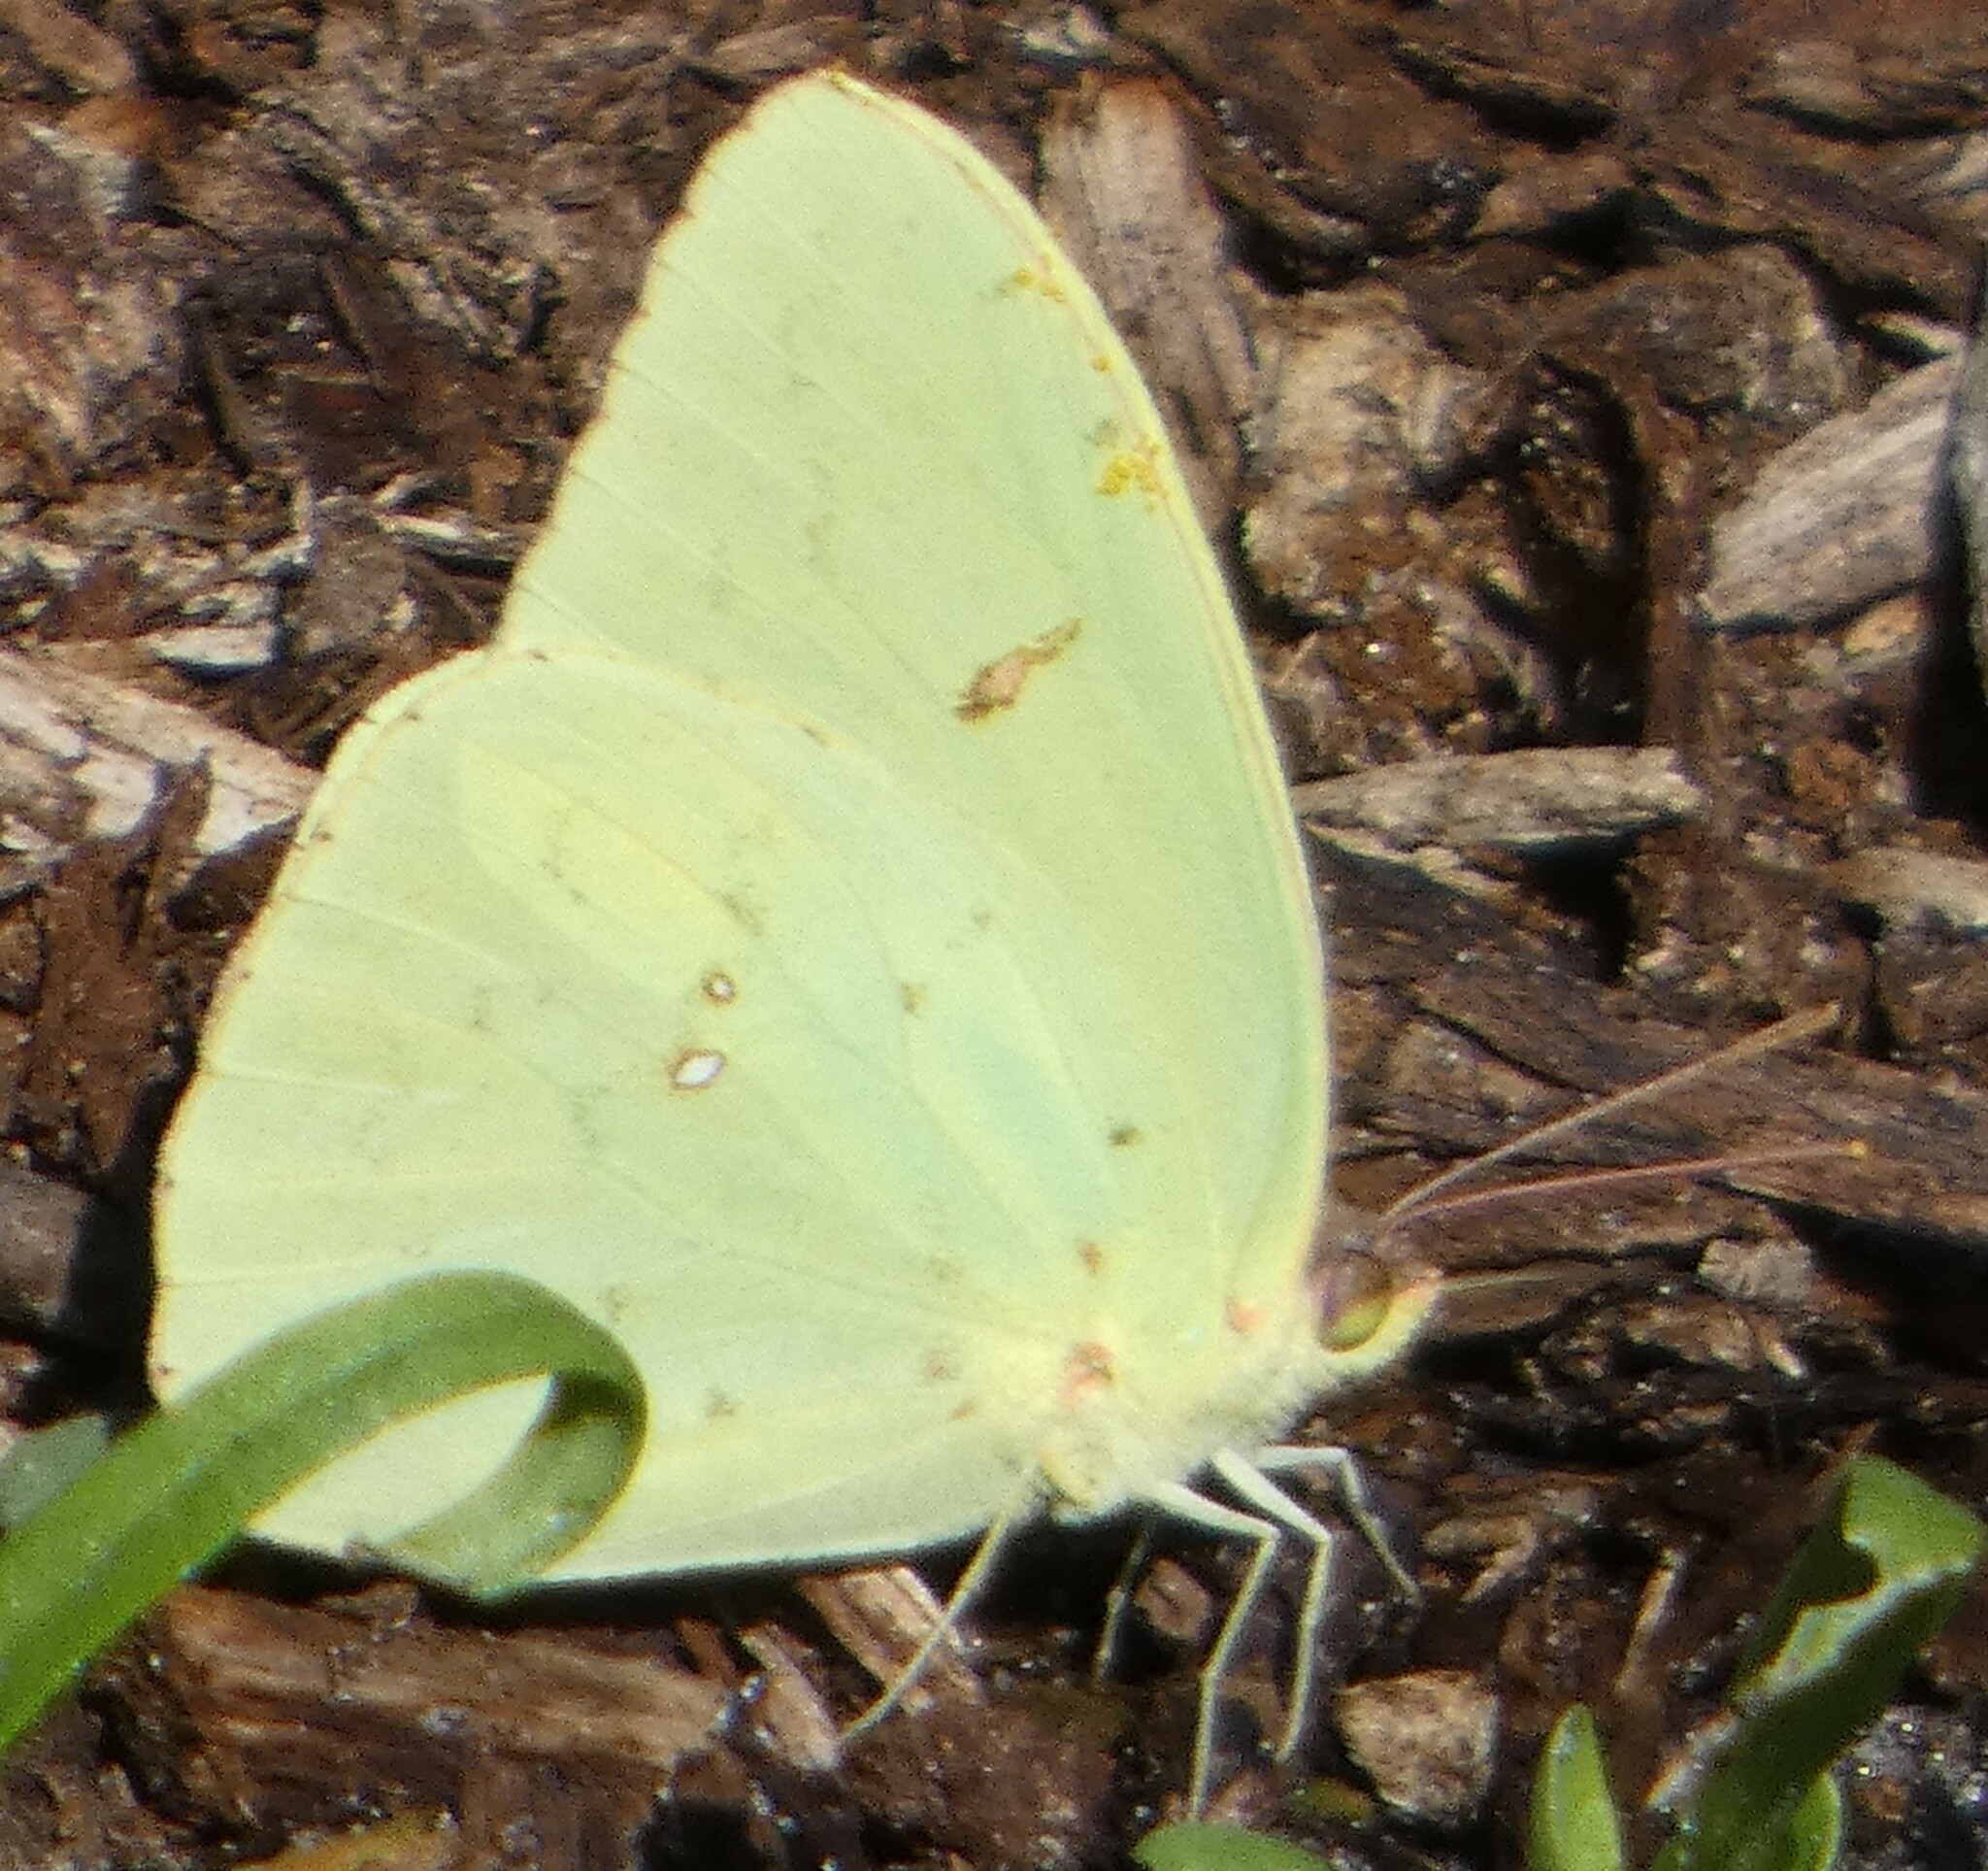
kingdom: Animalia
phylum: Arthropoda
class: Insecta
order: Lepidoptera
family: Pieridae
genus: Phoebis
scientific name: Phoebis sennae
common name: Cloudless sulphur
